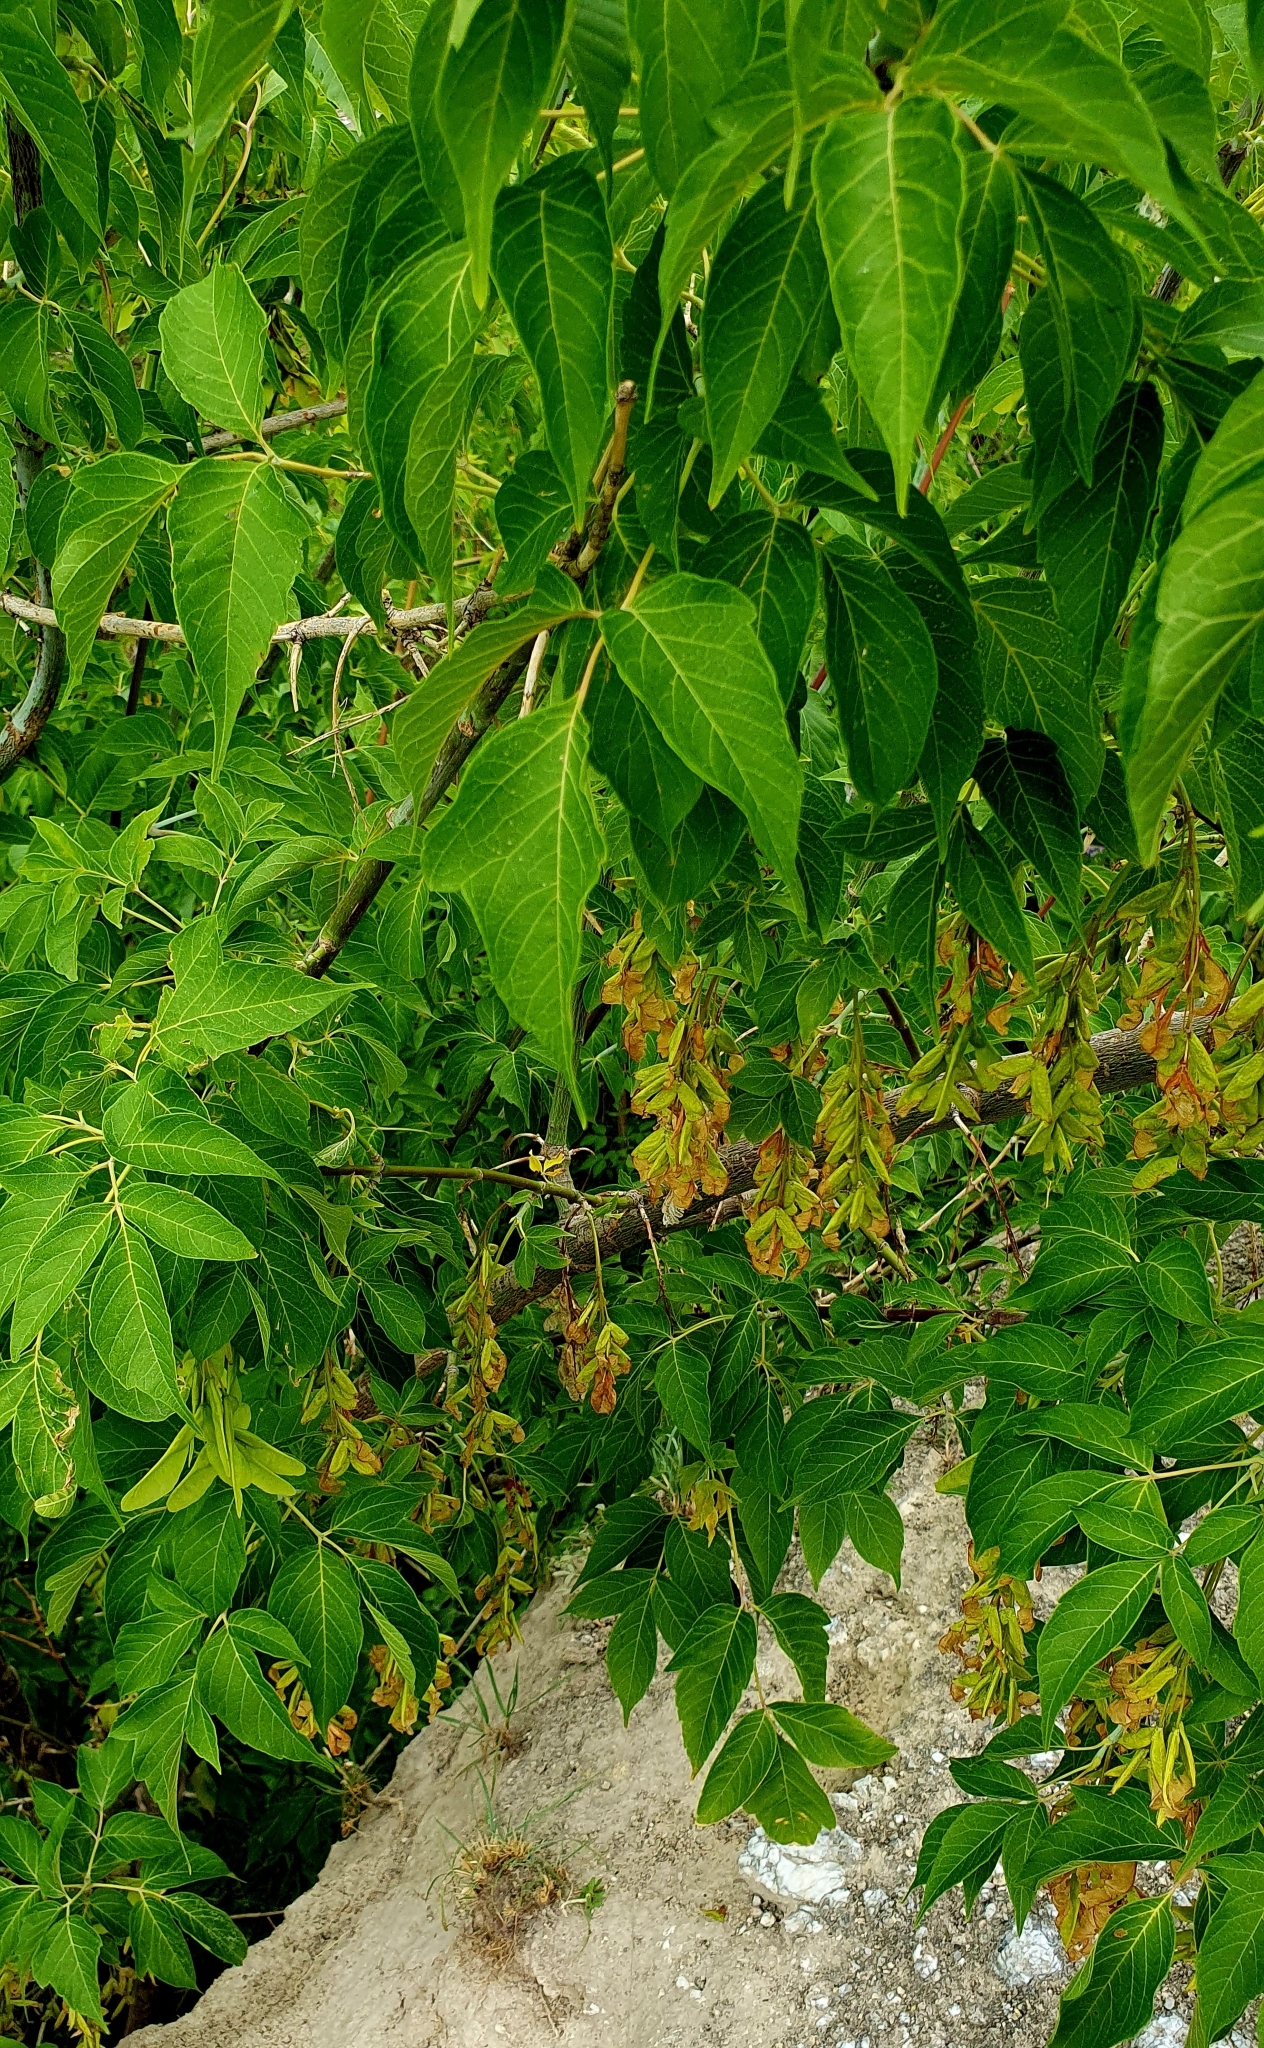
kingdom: Plantae
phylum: Tracheophyta
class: Magnoliopsida
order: Sapindales
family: Sapindaceae
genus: Acer
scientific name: Acer negundo
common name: Ashleaf maple
